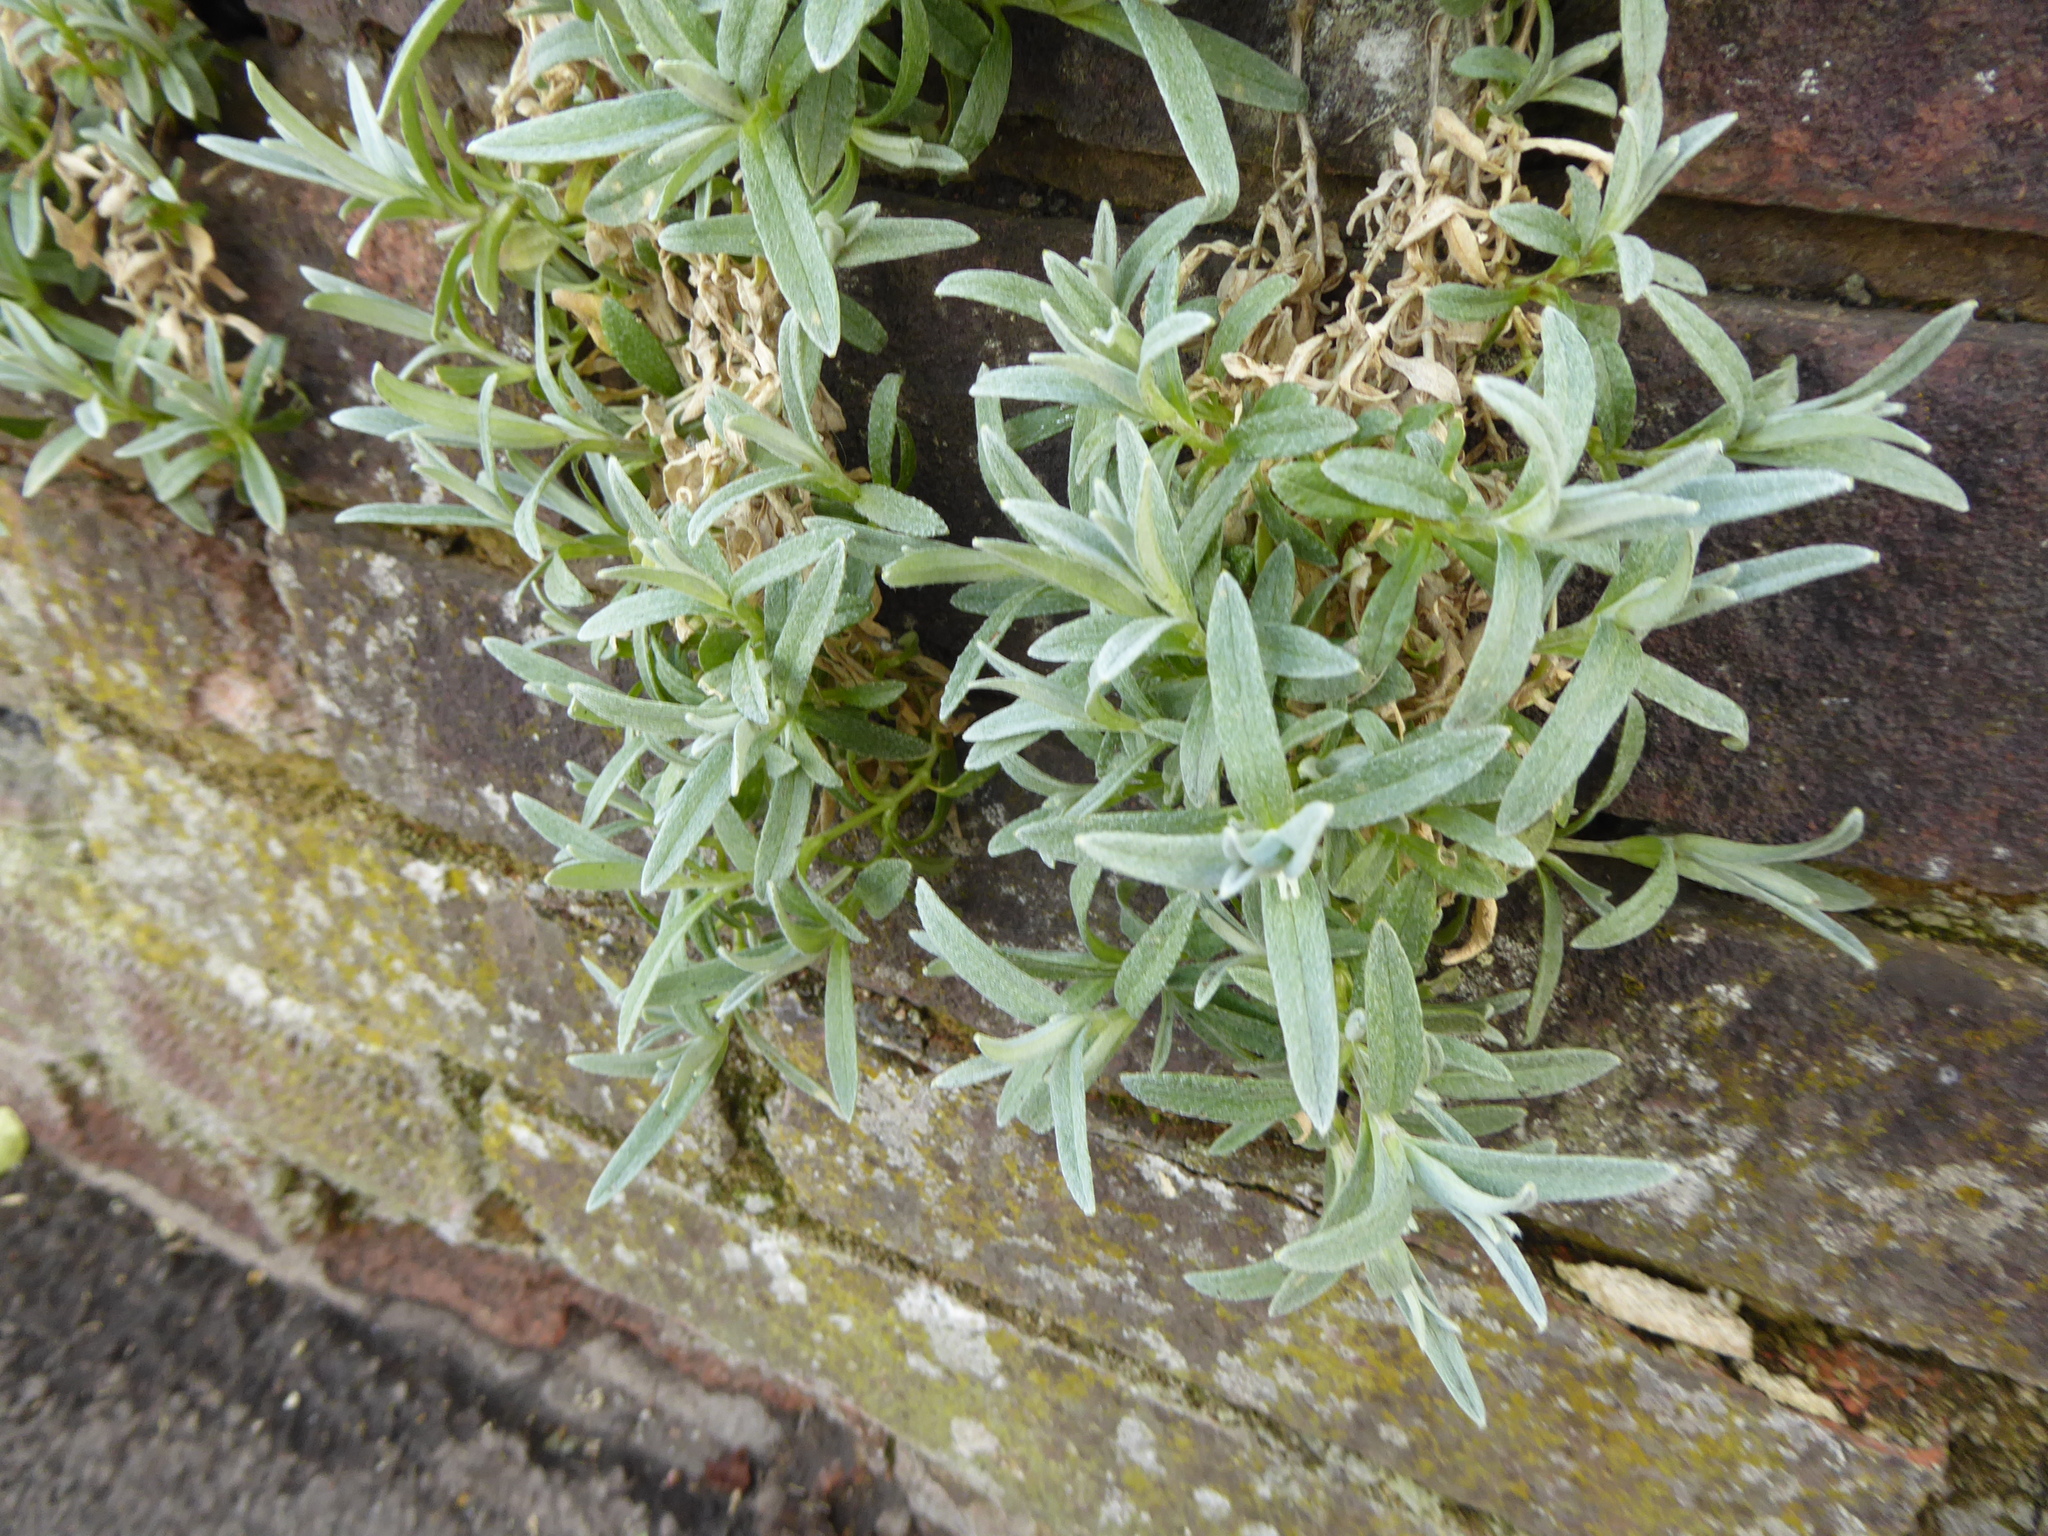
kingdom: Plantae
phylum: Tracheophyta
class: Magnoliopsida
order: Caryophyllales
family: Caryophyllaceae
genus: Cerastium
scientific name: Cerastium tomentosum
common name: Snow-in-summer
